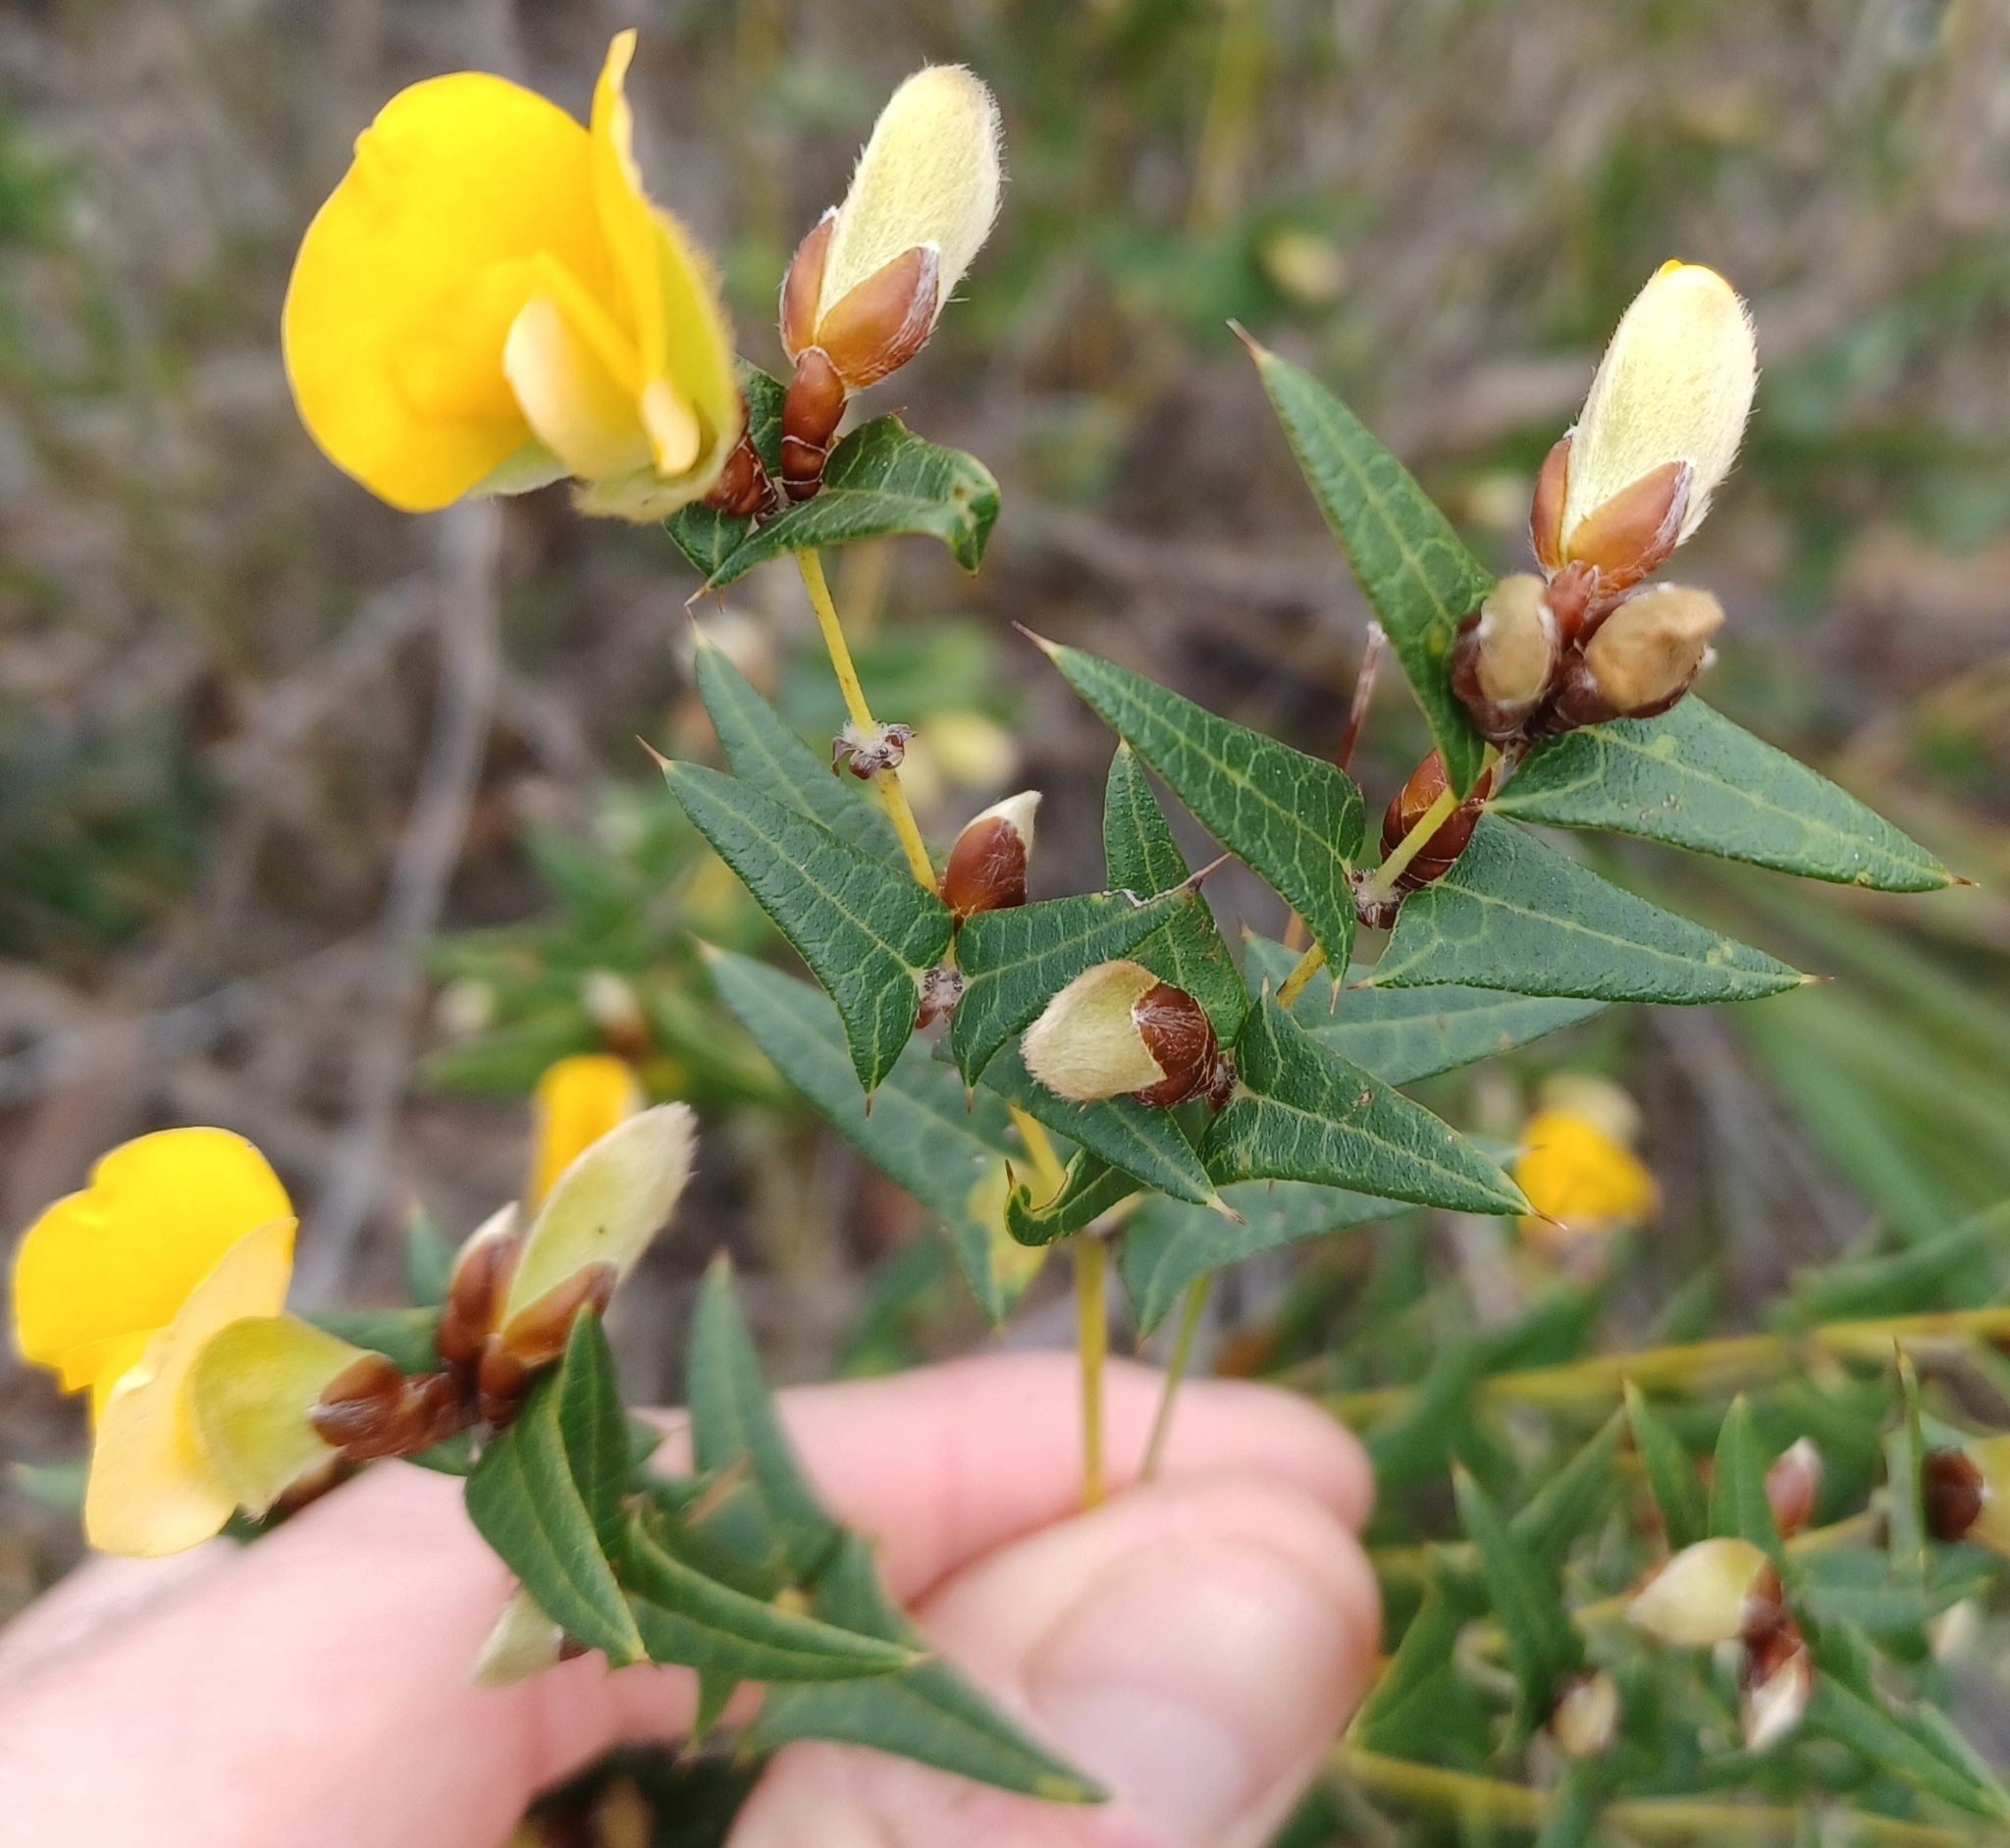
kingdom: Plantae
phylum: Tracheophyta
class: Magnoliopsida
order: Fabales
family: Fabaceae
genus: Platylobium
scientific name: Platylobium obtusangulum
